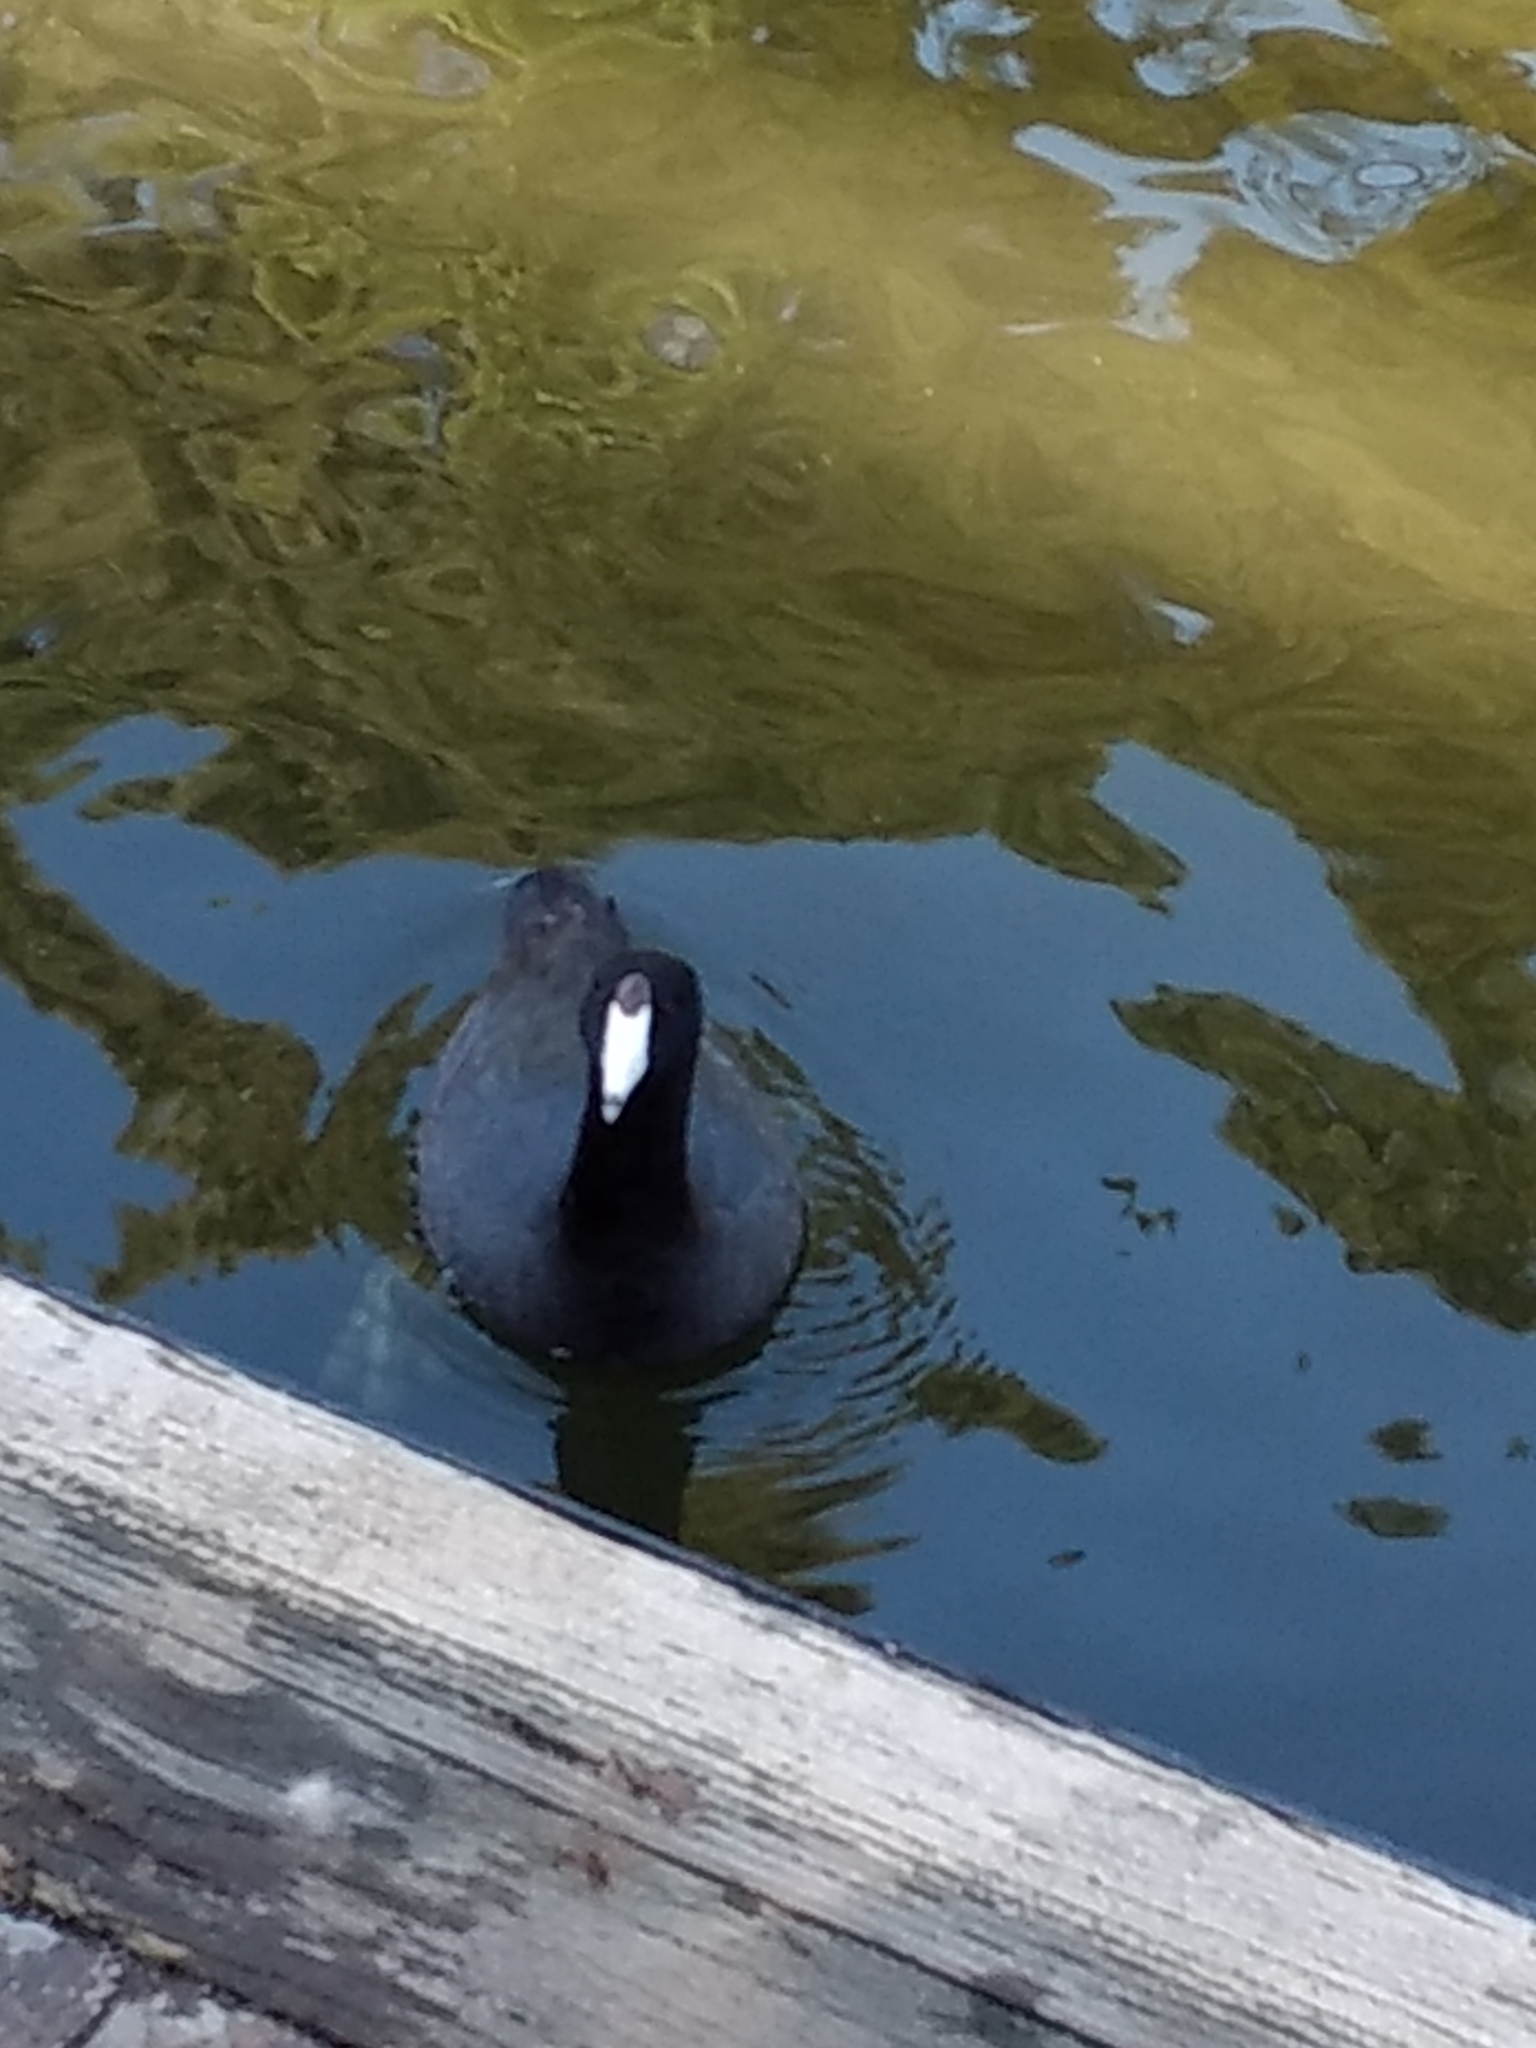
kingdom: Animalia
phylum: Chordata
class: Aves
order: Gruiformes
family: Rallidae
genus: Fulica
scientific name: Fulica americana
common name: American coot
